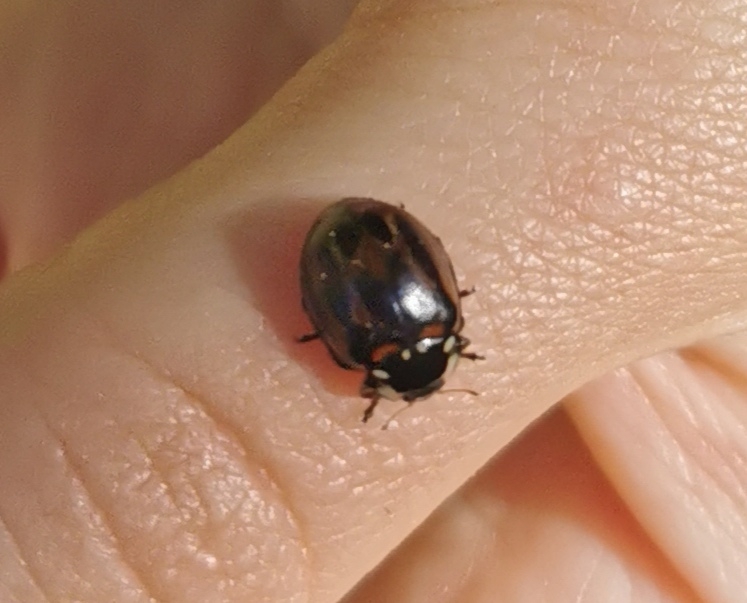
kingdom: Animalia
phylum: Arthropoda
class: Insecta
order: Coleoptera
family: Coccinellidae
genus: Anatis
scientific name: Anatis ocellata
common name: Eyed ladybird
